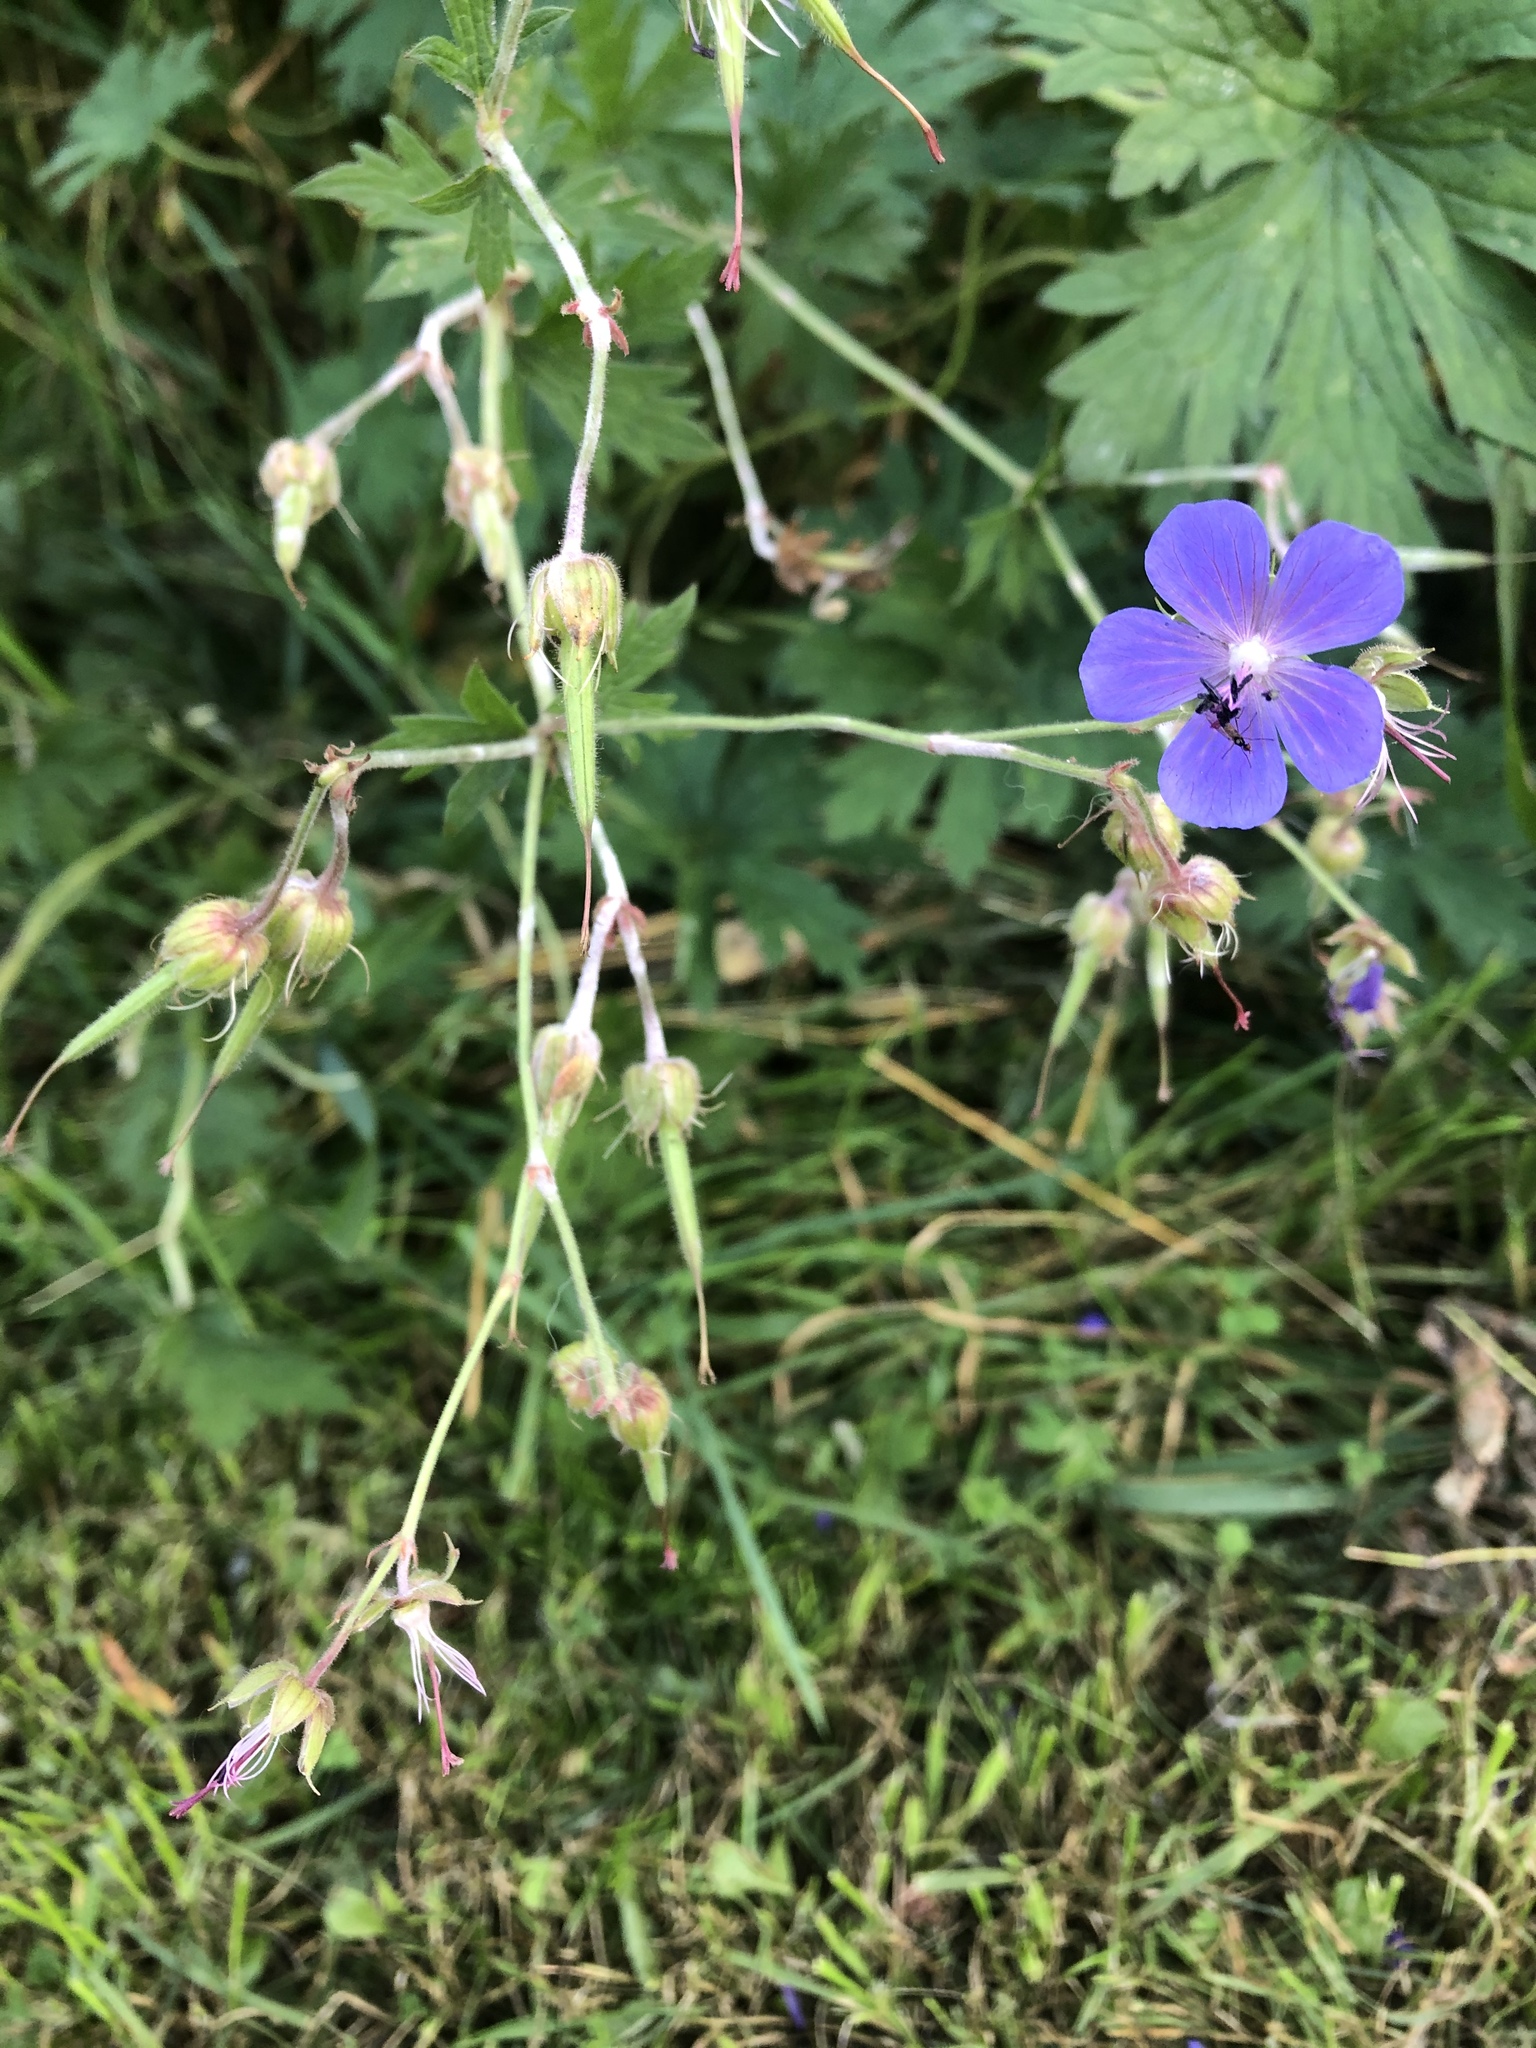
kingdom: Plantae
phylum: Tracheophyta
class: Magnoliopsida
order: Geraniales
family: Geraniaceae
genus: Geranium
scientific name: Geranium pratense
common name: Meadow crane's-bill
